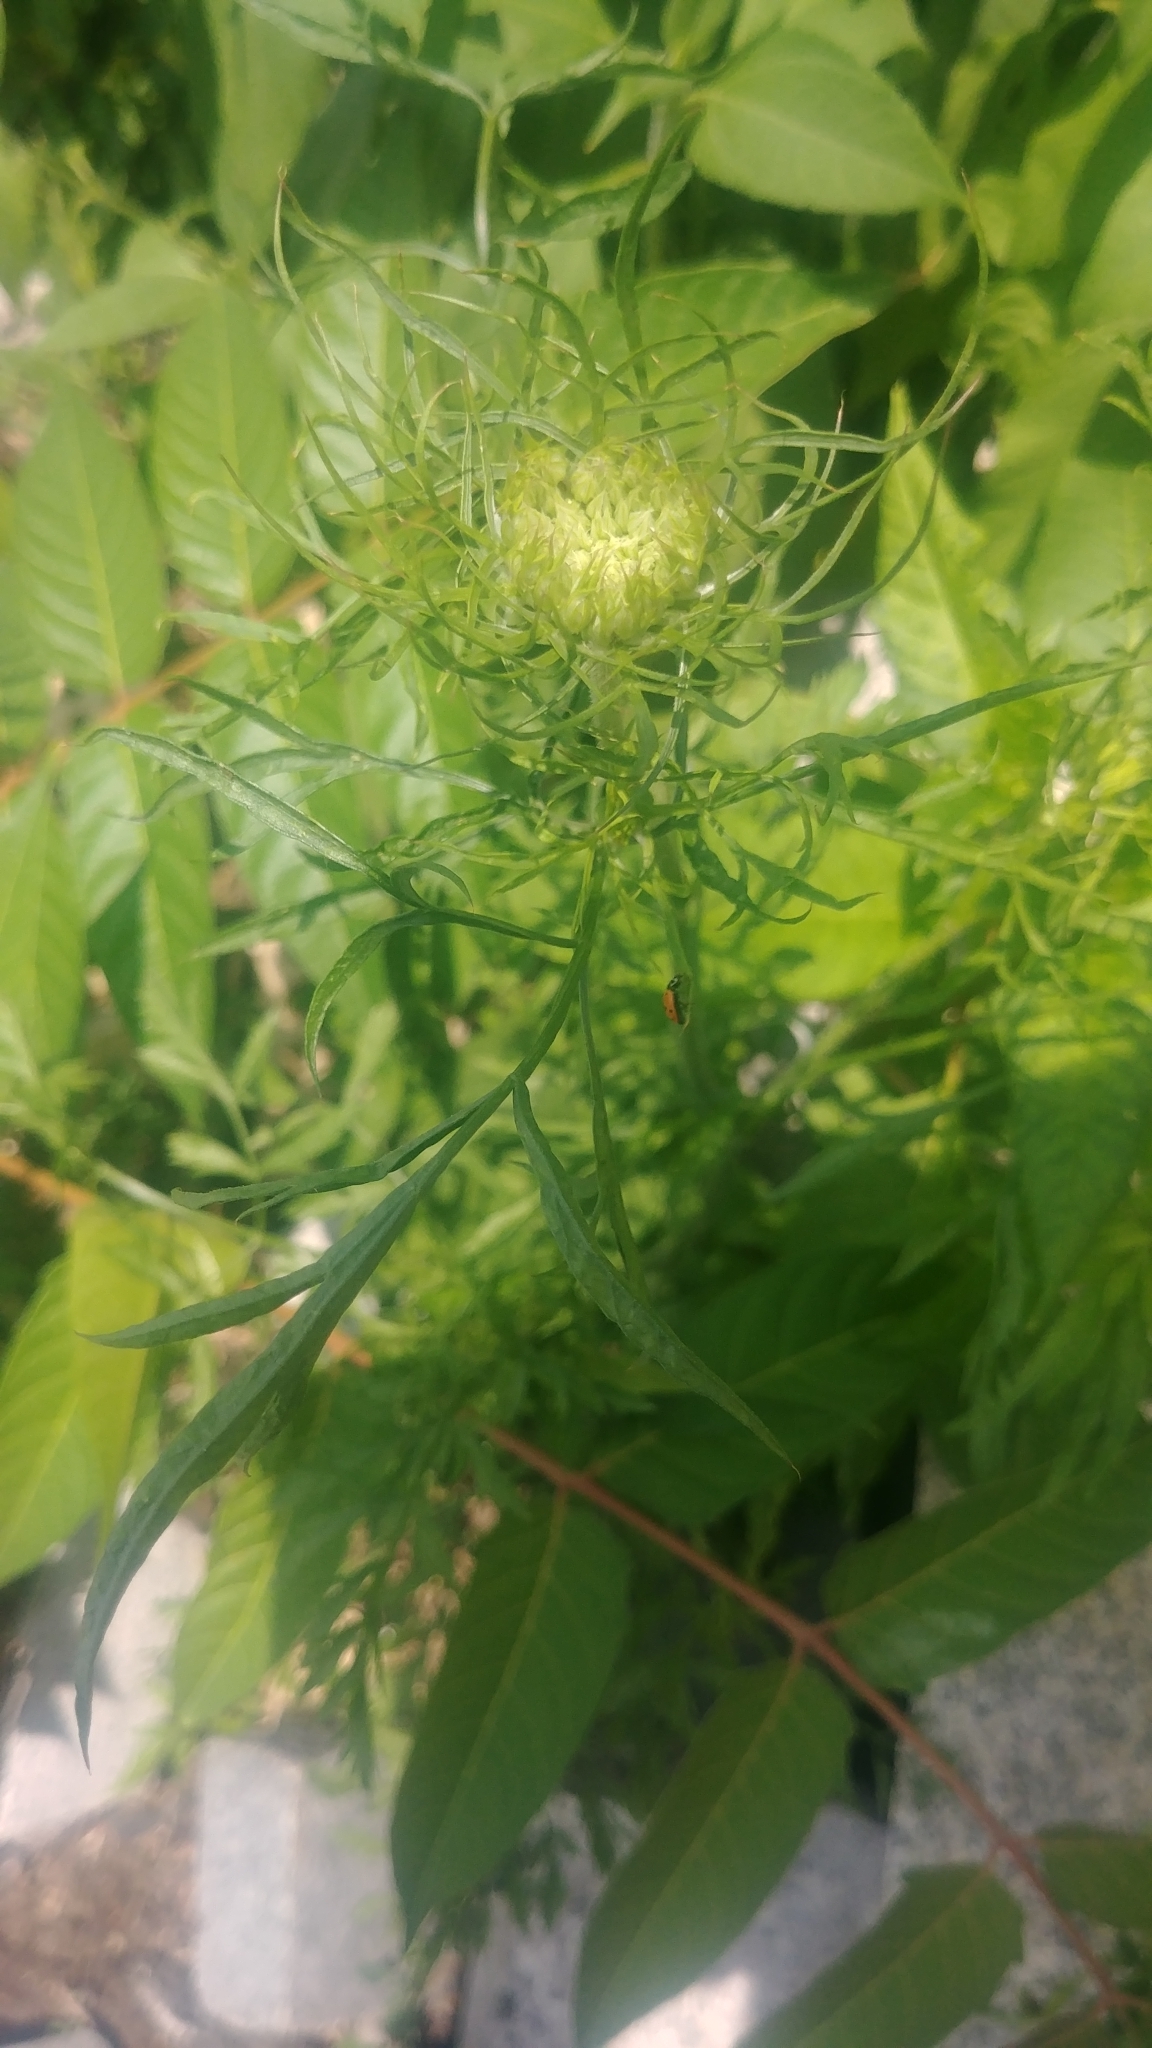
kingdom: Plantae
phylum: Tracheophyta
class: Magnoliopsida
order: Apiales
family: Apiaceae
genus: Daucus
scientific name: Daucus carota
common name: Wild carrot
